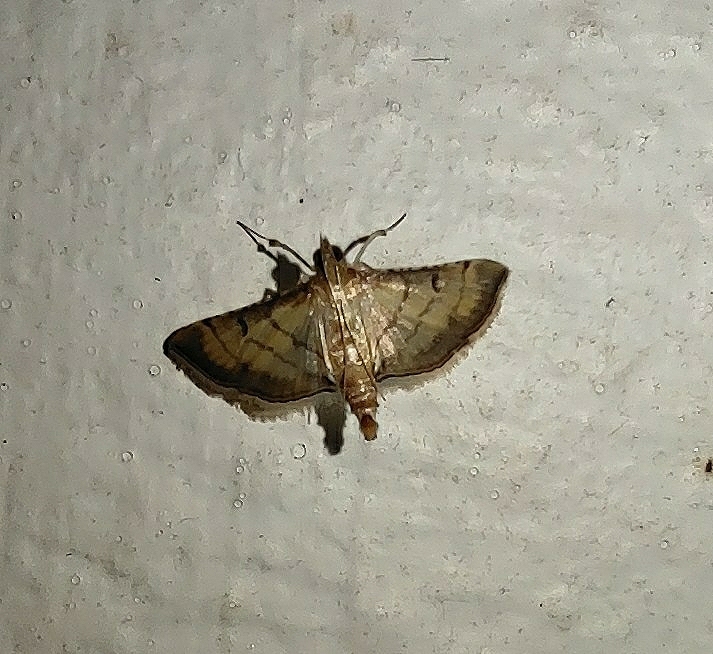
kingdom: Animalia
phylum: Arthropoda
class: Insecta
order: Lepidoptera
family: Crambidae
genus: Cnaphalocrocis
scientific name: Cnaphalocrocis poeyalis
